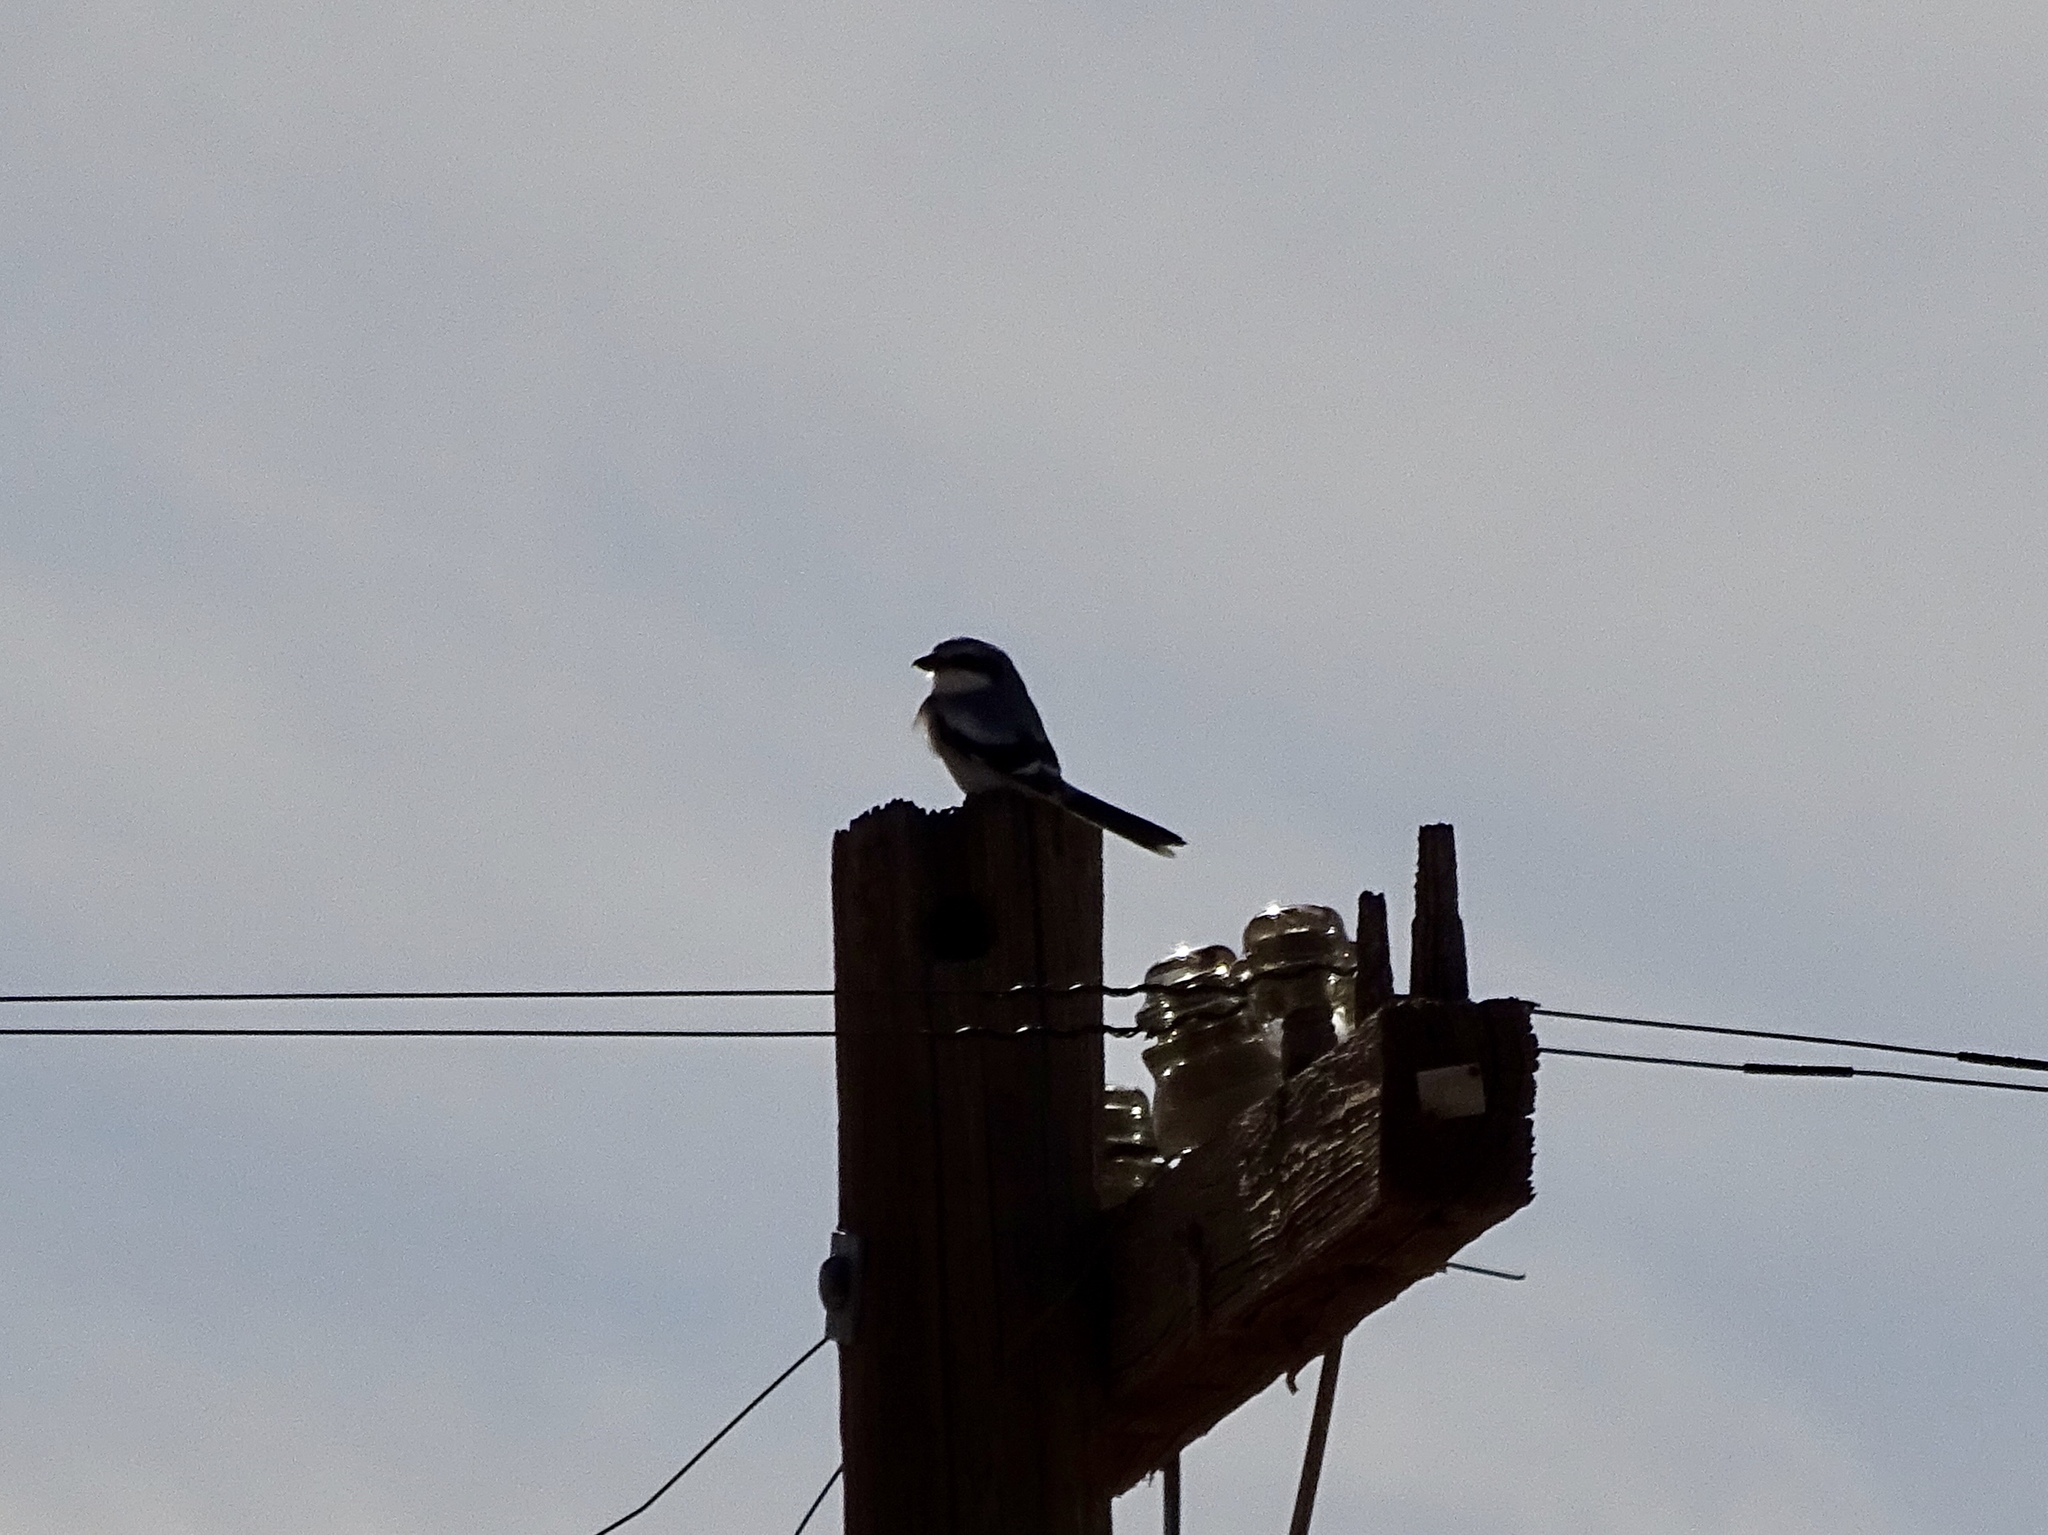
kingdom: Animalia
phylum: Chordata
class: Aves
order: Passeriformes
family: Laniidae
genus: Lanius
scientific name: Lanius ludovicianus
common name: Loggerhead shrike
